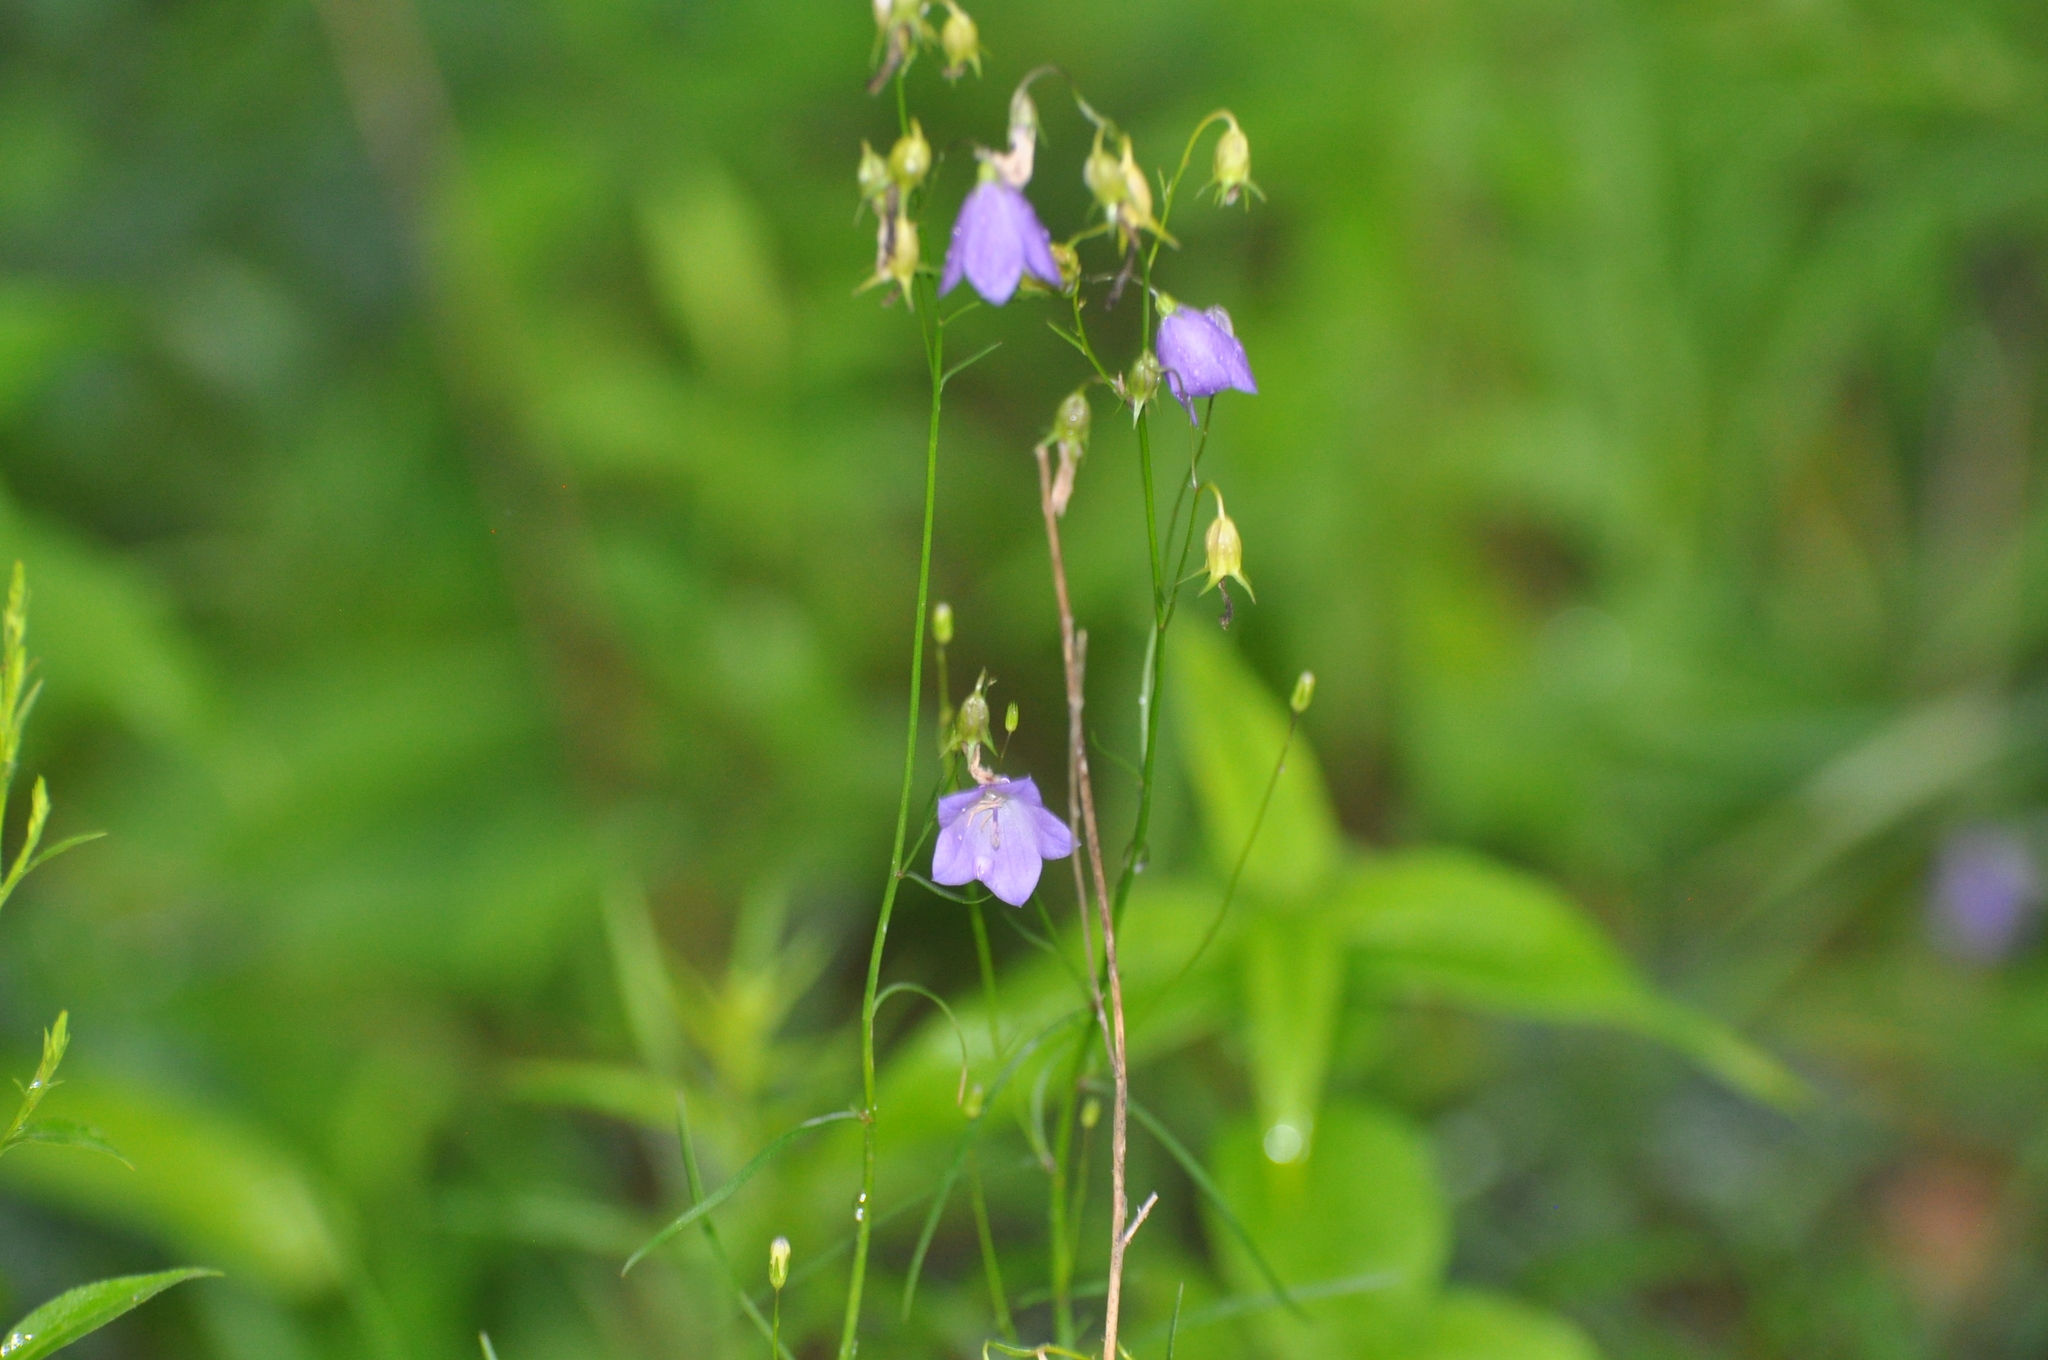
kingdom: Plantae
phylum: Tracheophyta
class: Magnoliopsida
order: Asterales
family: Campanulaceae
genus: Campanula
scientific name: Campanula intercedens
